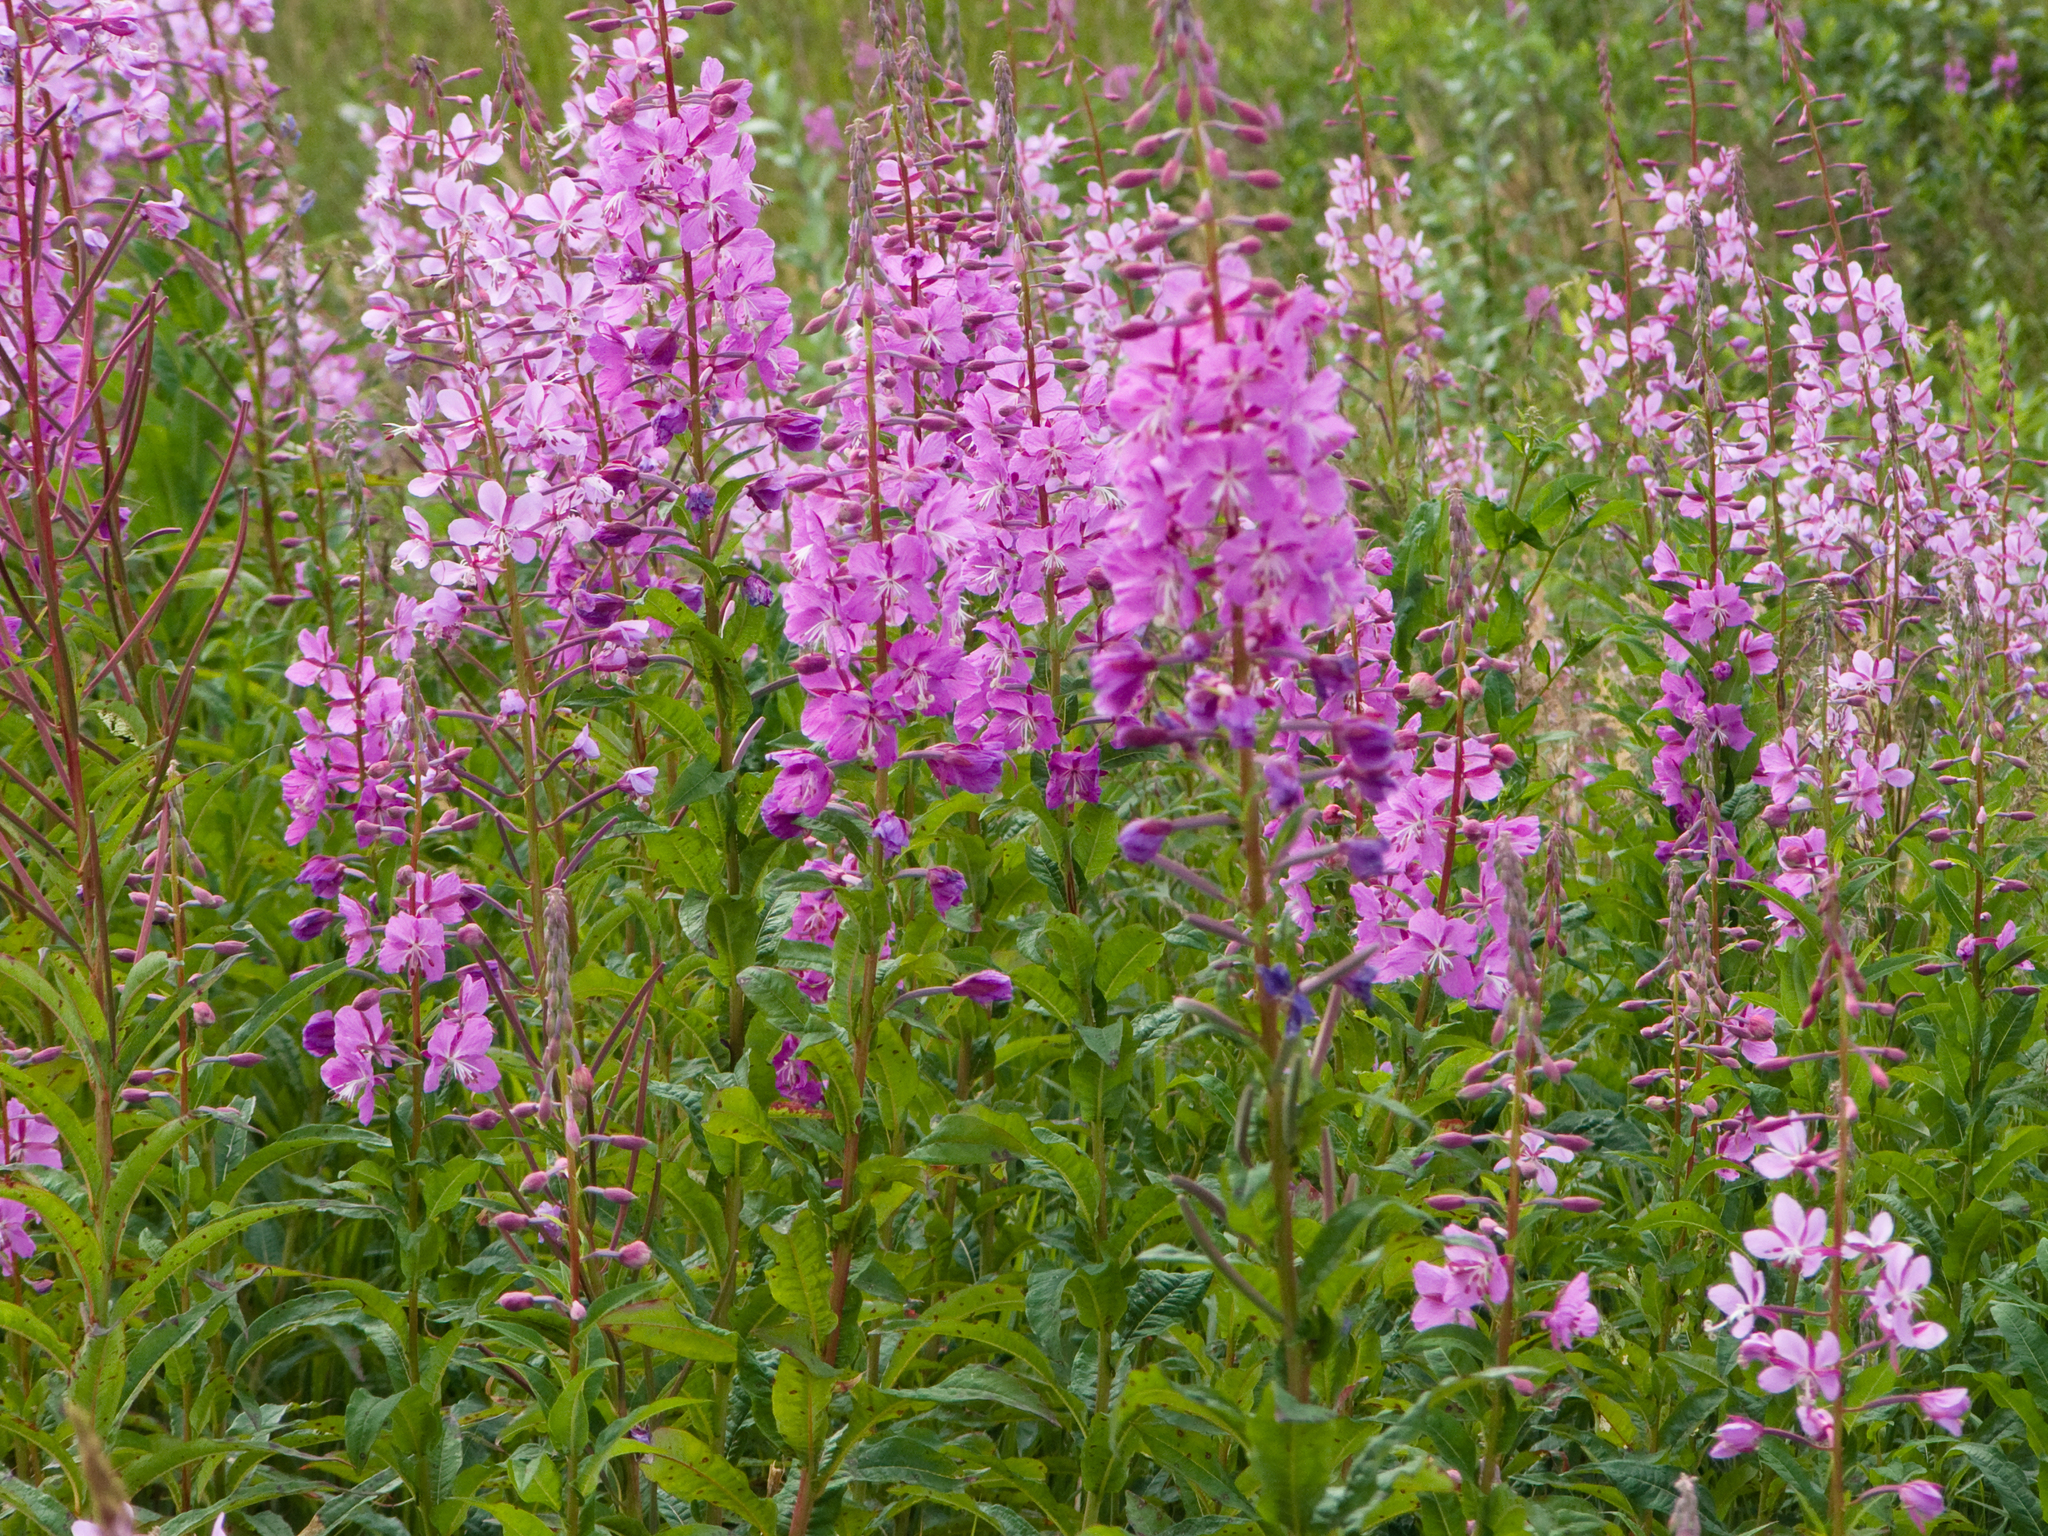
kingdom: Plantae
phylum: Tracheophyta
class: Magnoliopsida
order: Myrtales
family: Onagraceae
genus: Chamaenerion
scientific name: Chamaenerion angustifolium
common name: Fireweed
